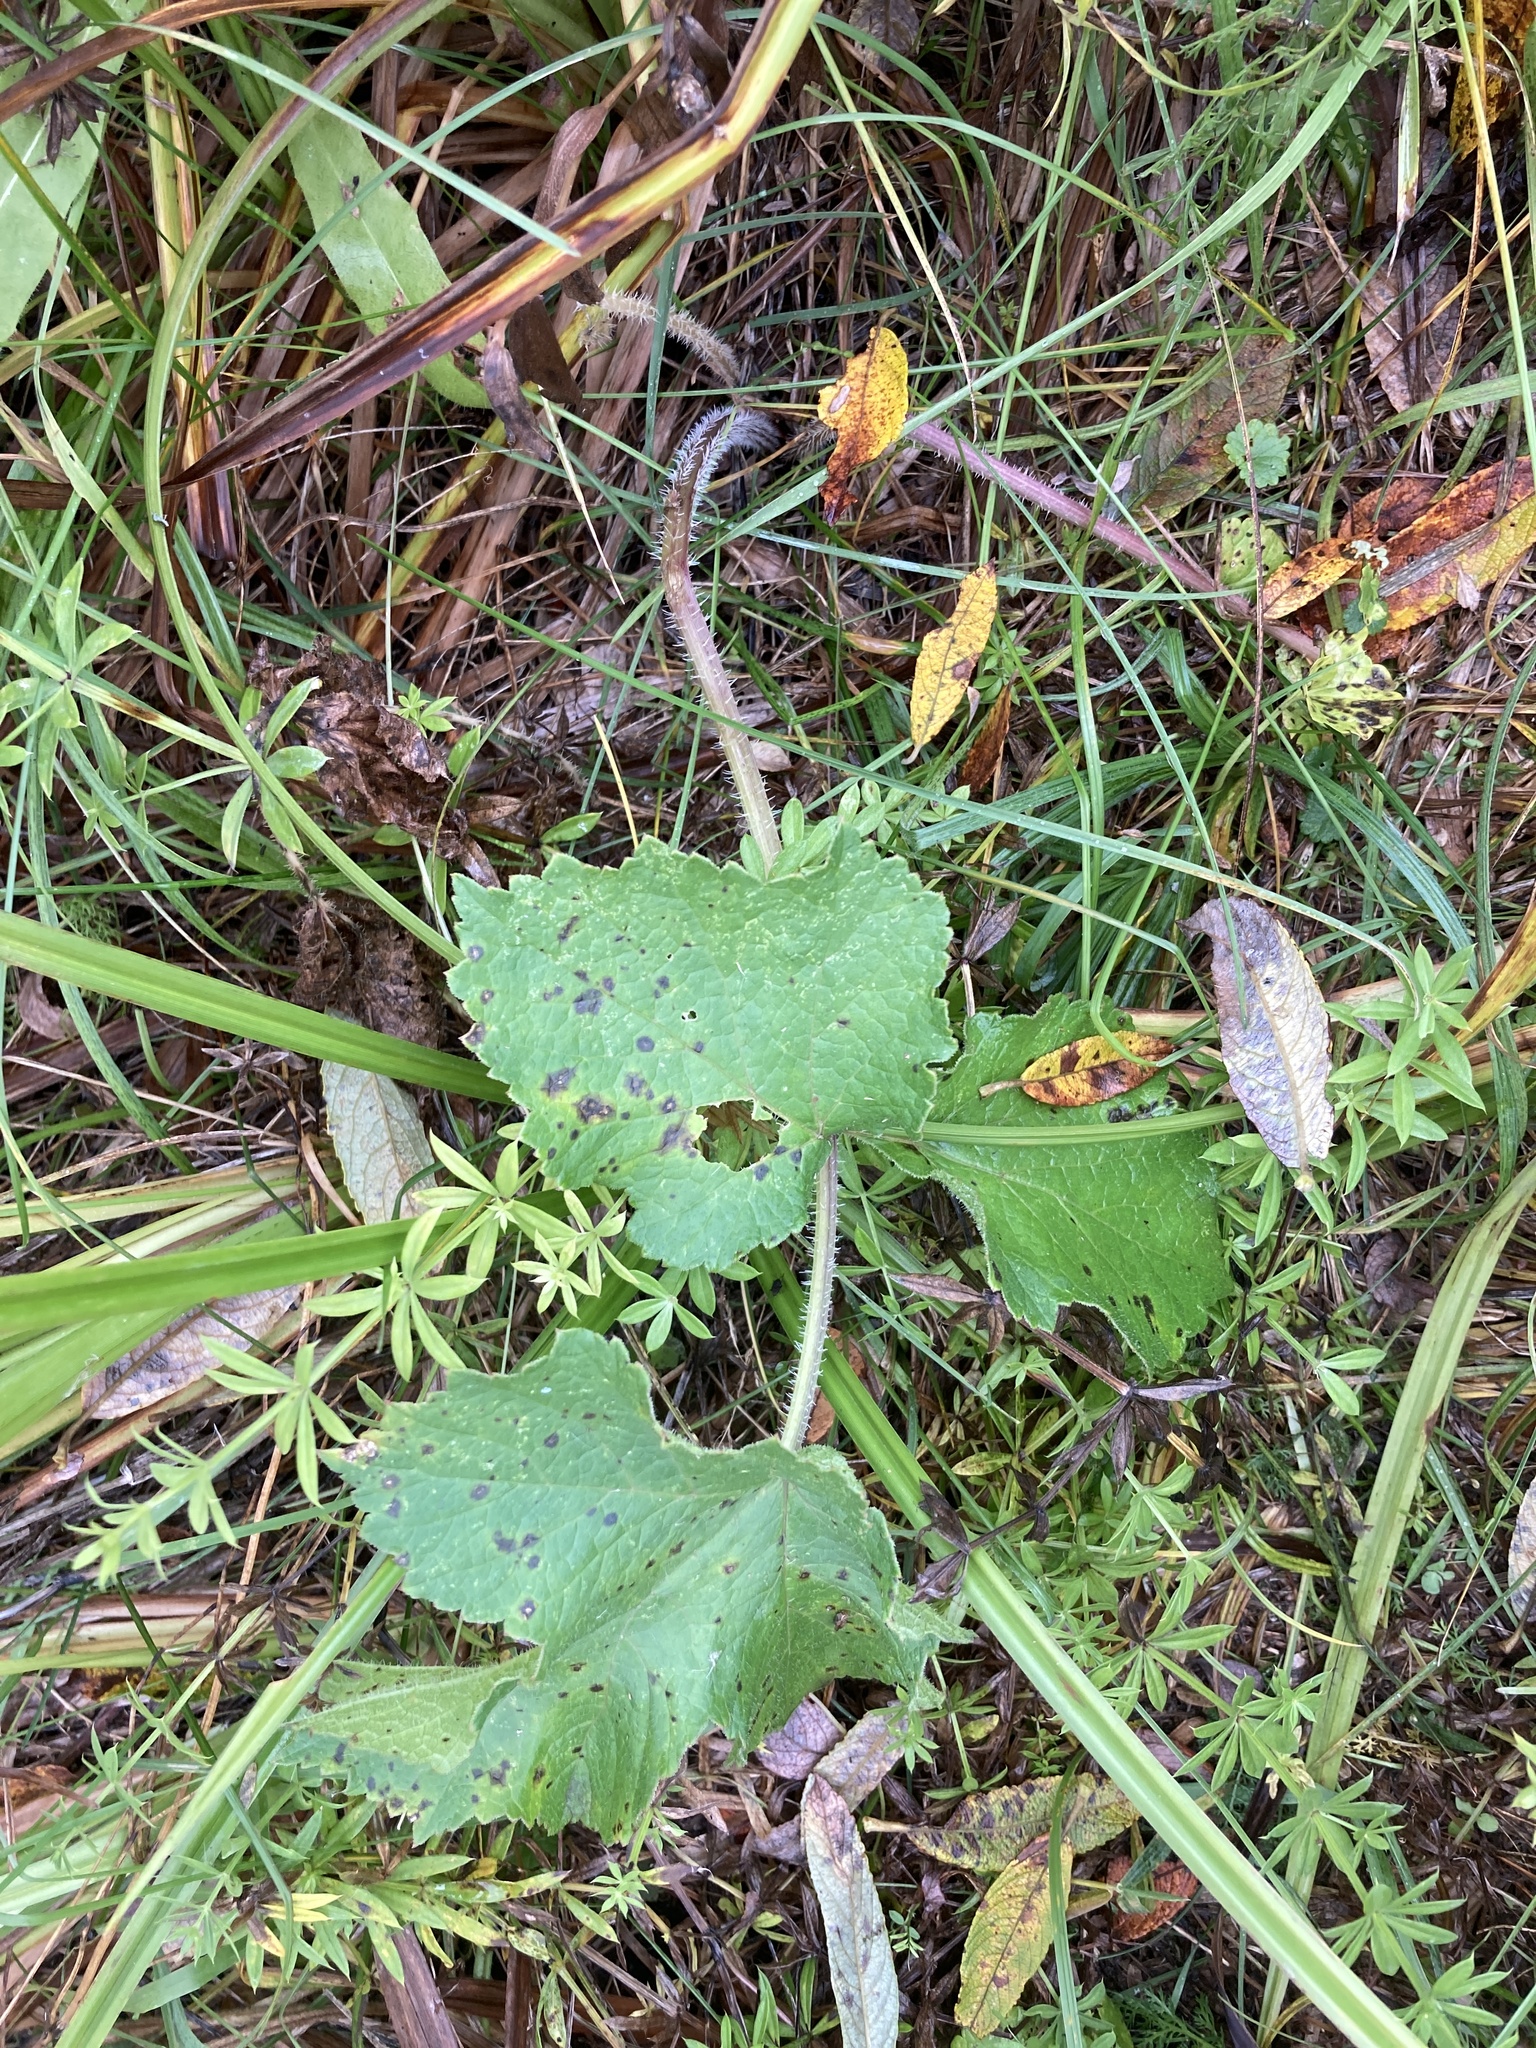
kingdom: Plantae
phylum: Tracheophyta
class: Magnoliopsida
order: Apiales
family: Apiaceae
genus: Heracleum
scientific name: Heracleum sphondylium
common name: Hogweed
